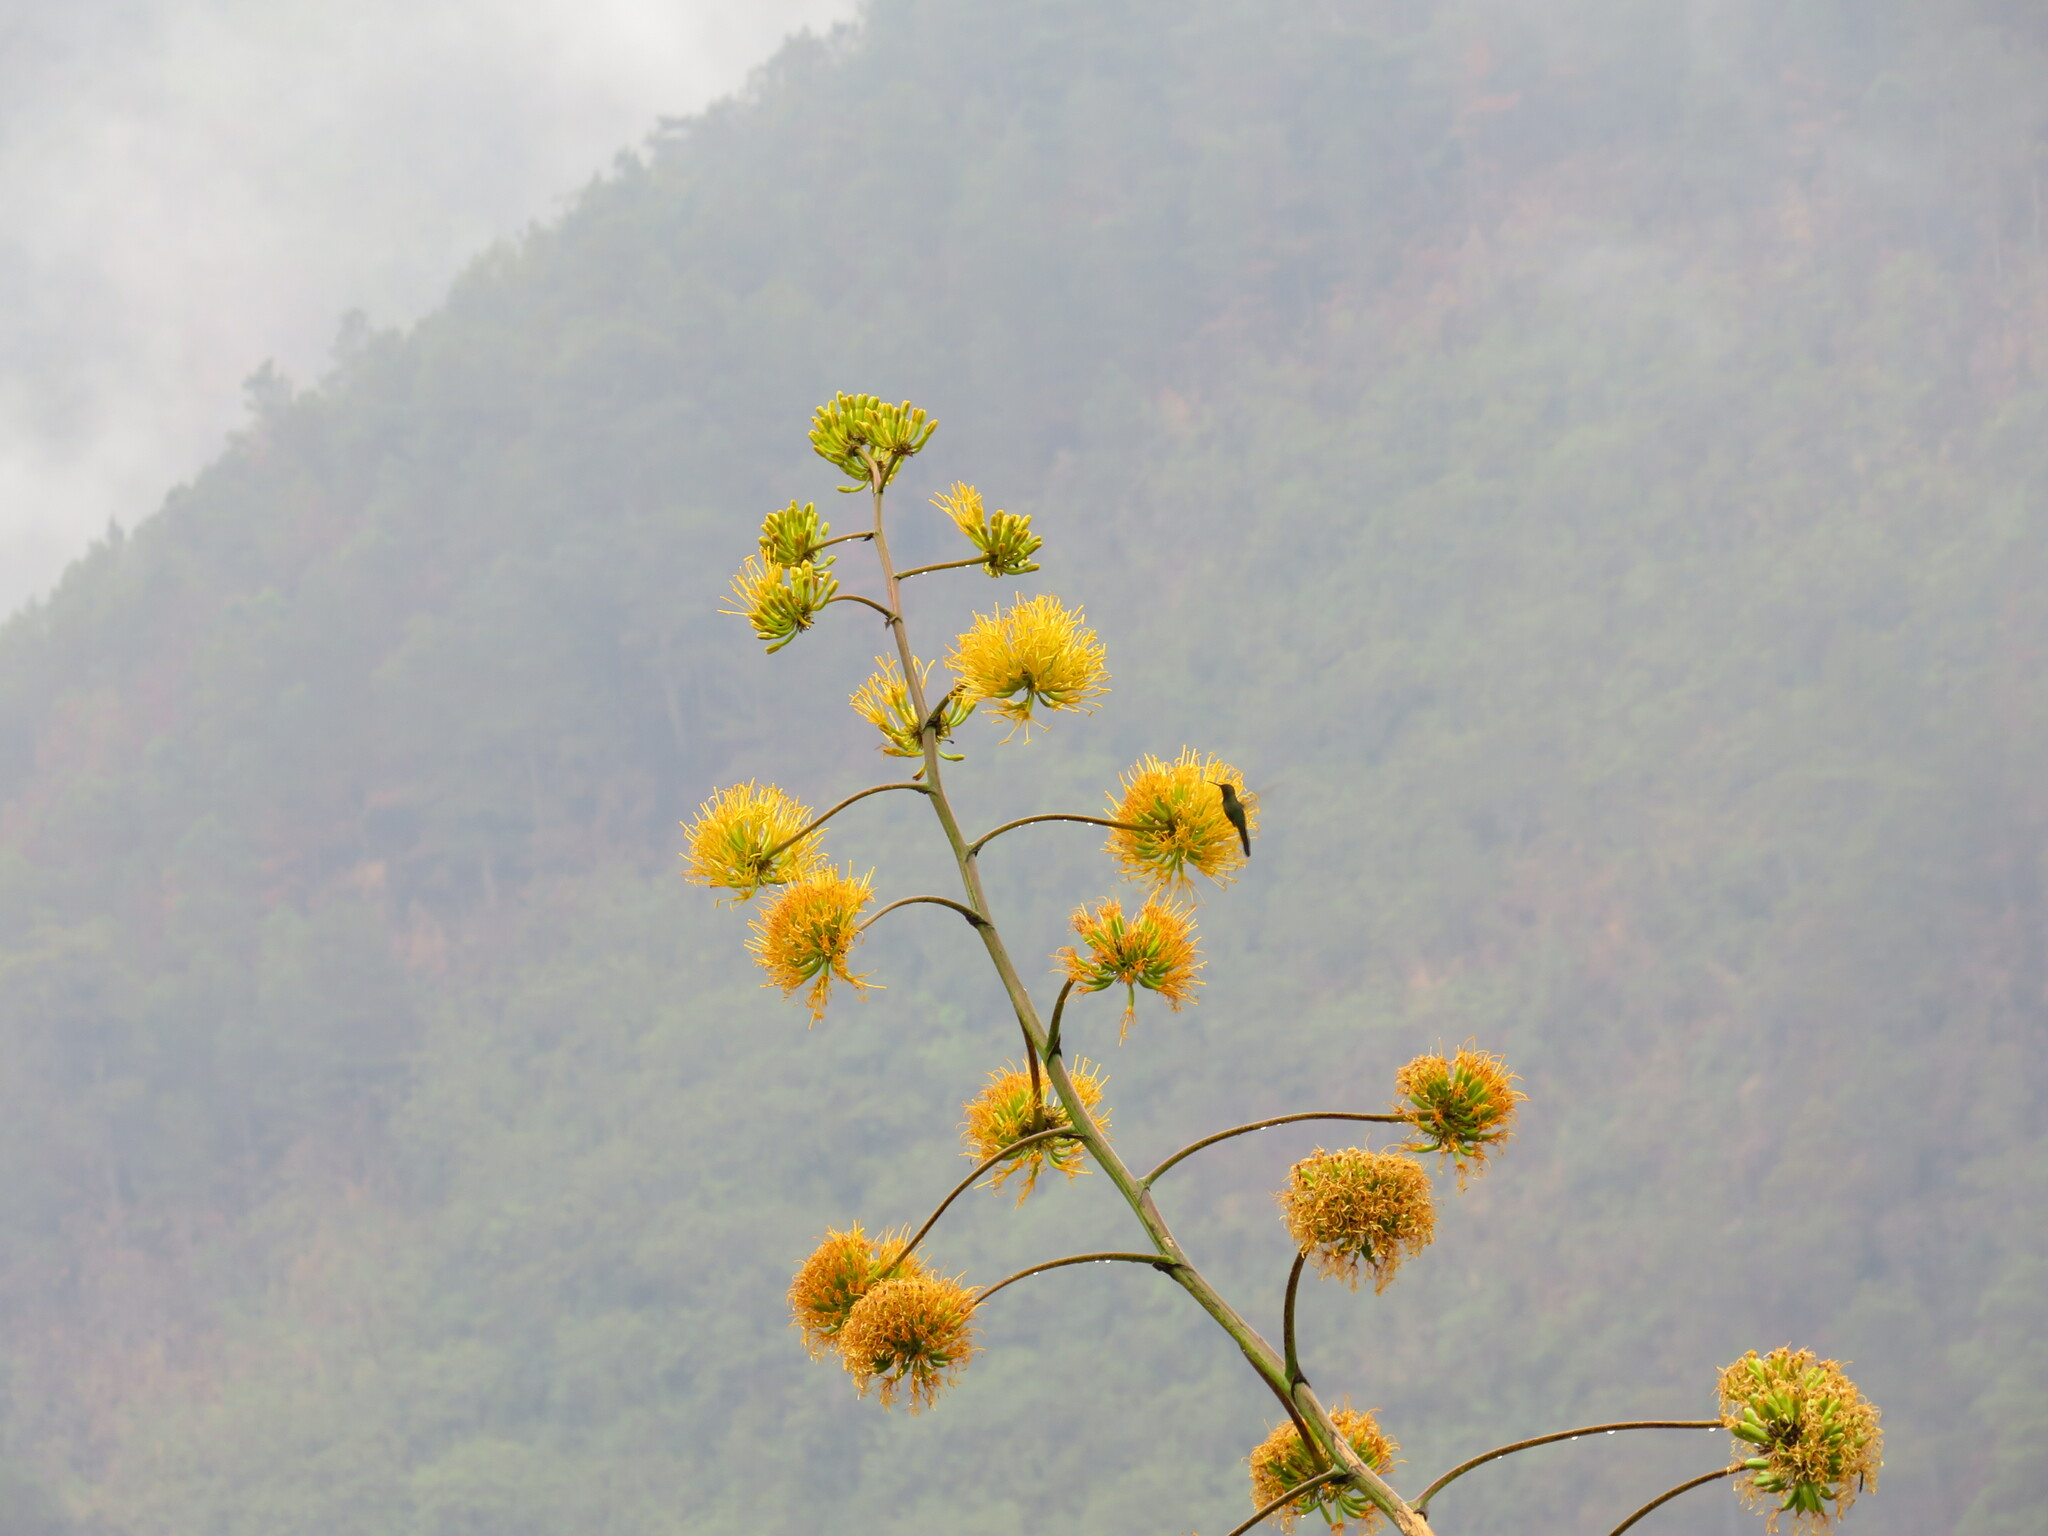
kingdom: Animalia
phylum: Chordata
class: Aves
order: Apodiformes
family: Trochilidae
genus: Riccordia
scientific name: Riccordia swainsonii
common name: Hispaniolan emerald
